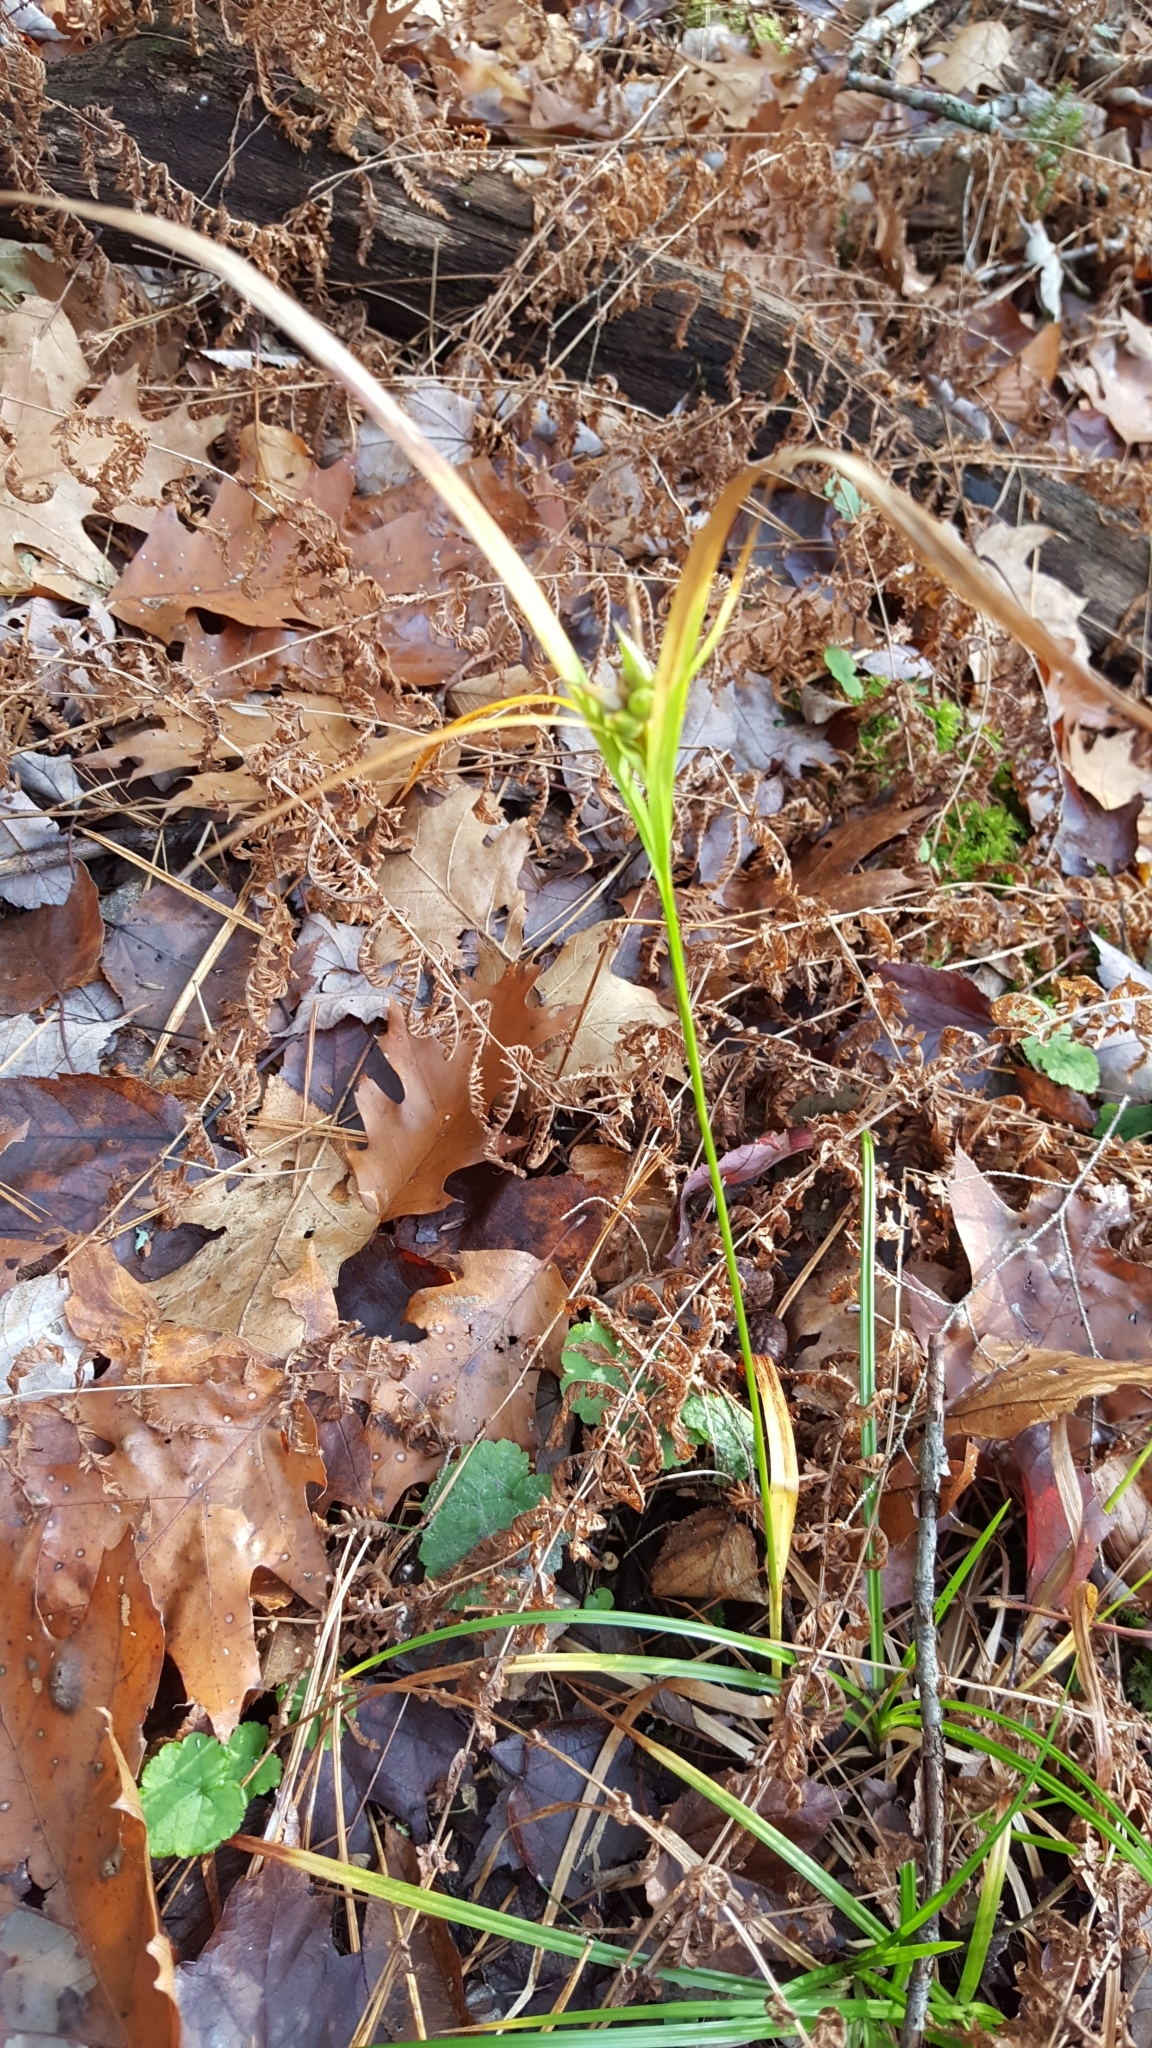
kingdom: Plantae
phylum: Tracheophyta
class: Liliopsida
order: Poales
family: Cyperaceae
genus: Carex
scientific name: Carex intumescens
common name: Greater bladder sedge
